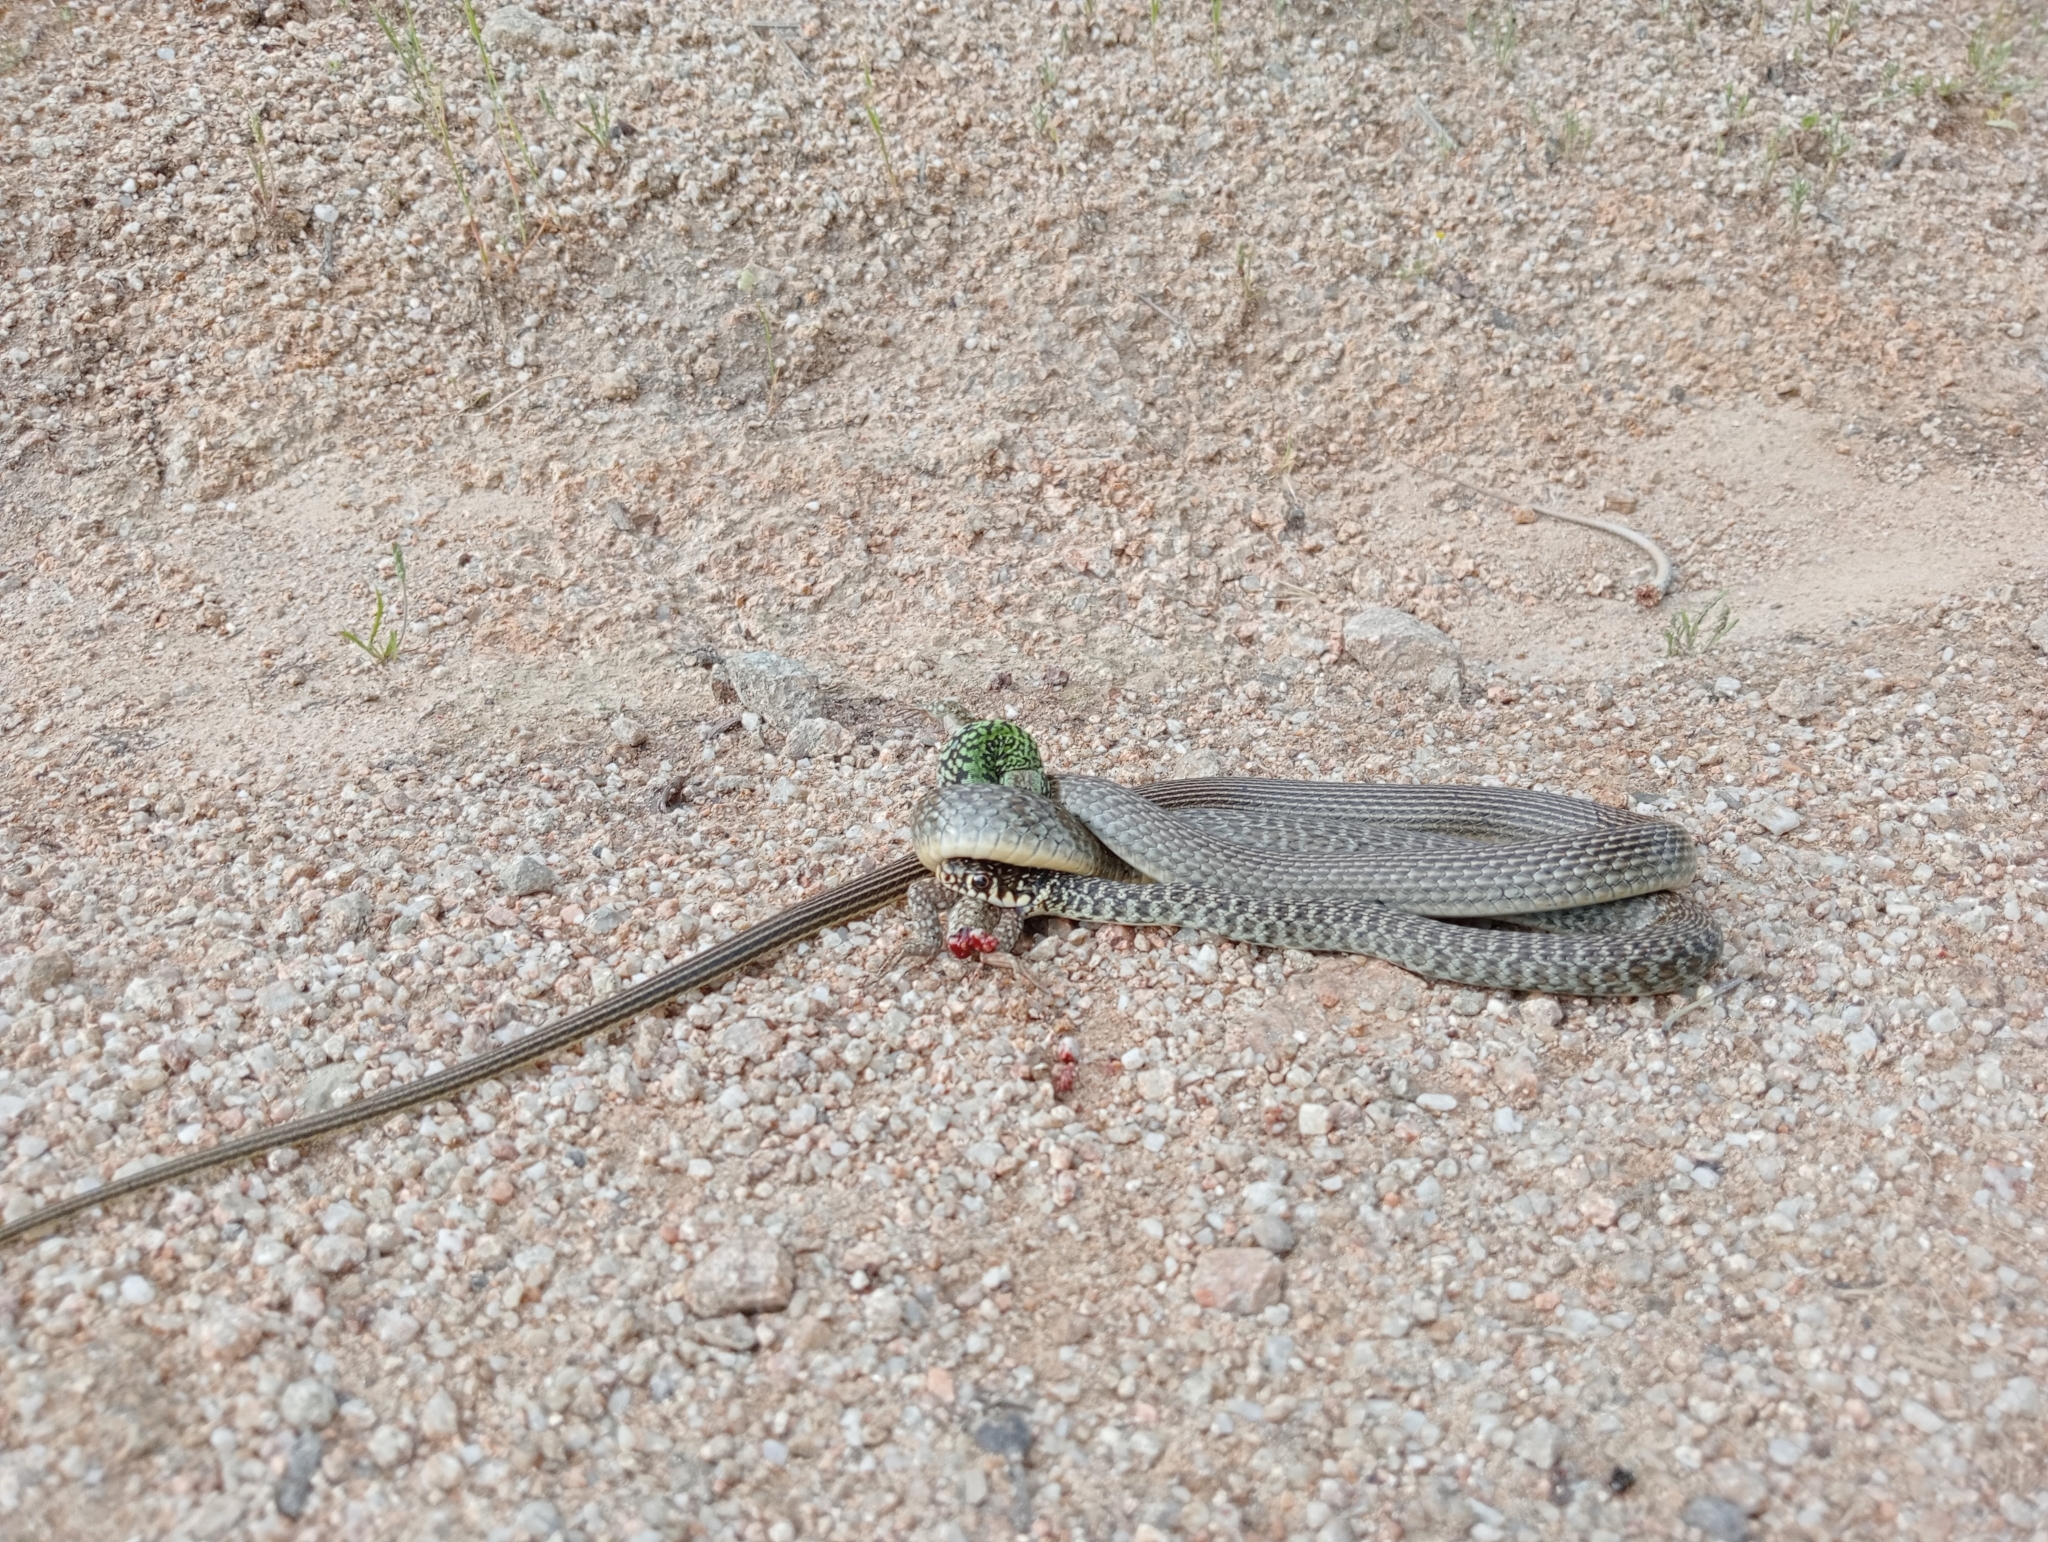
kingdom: Animalia
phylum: Chordata
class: Squamata
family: Colubridae
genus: Hierophis
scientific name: Hierophis viridiflavus
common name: Green whip snake
